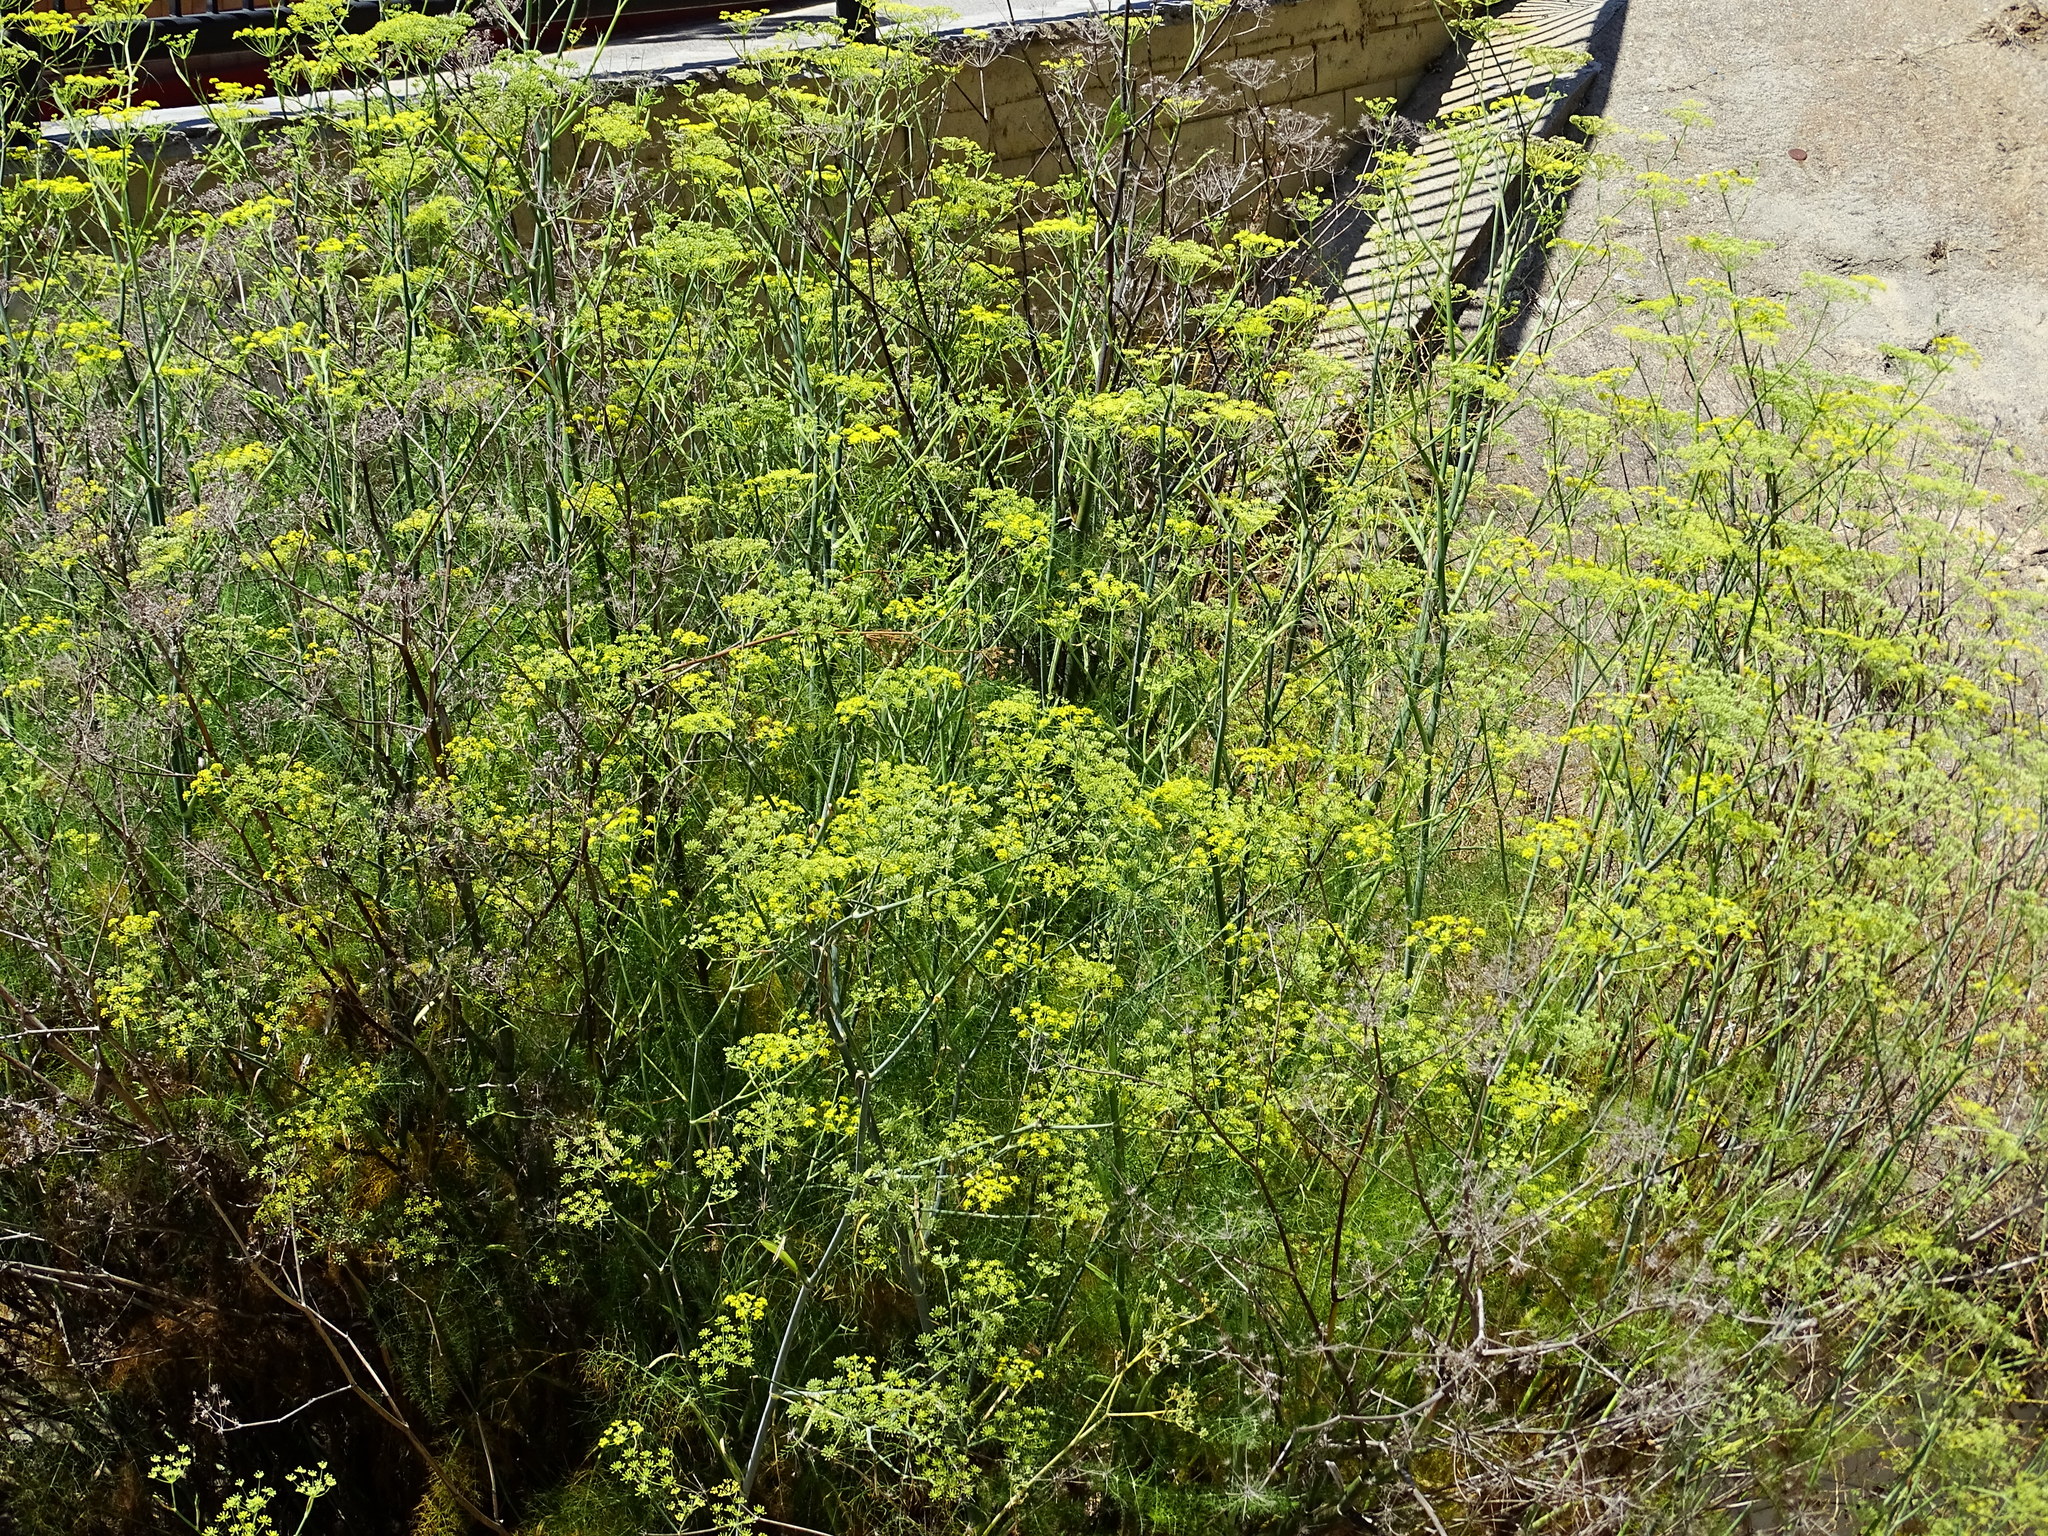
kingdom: Plantae
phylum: Tracheophyta
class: Magnoliopsida
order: Apiales
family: Apiaceae
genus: Foeniculum
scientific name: Foeniculum vulgare
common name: Fennel
